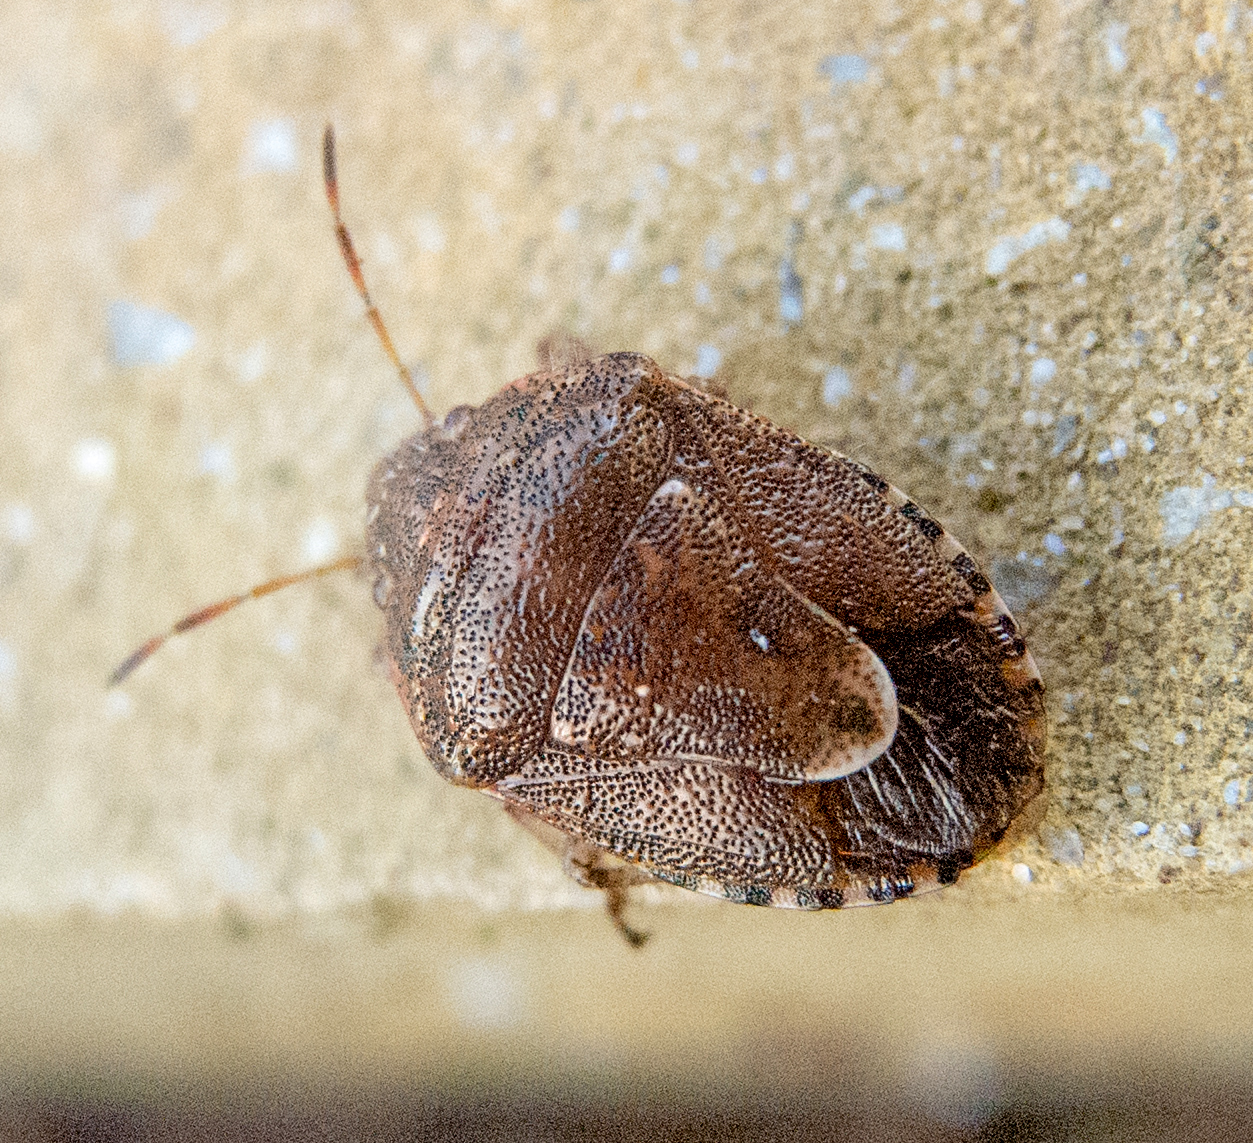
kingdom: Animalia
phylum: Arthropoda
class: Insecta
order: Hemiptera
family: Pentatomidae
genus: Staria
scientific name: Staria lunata
